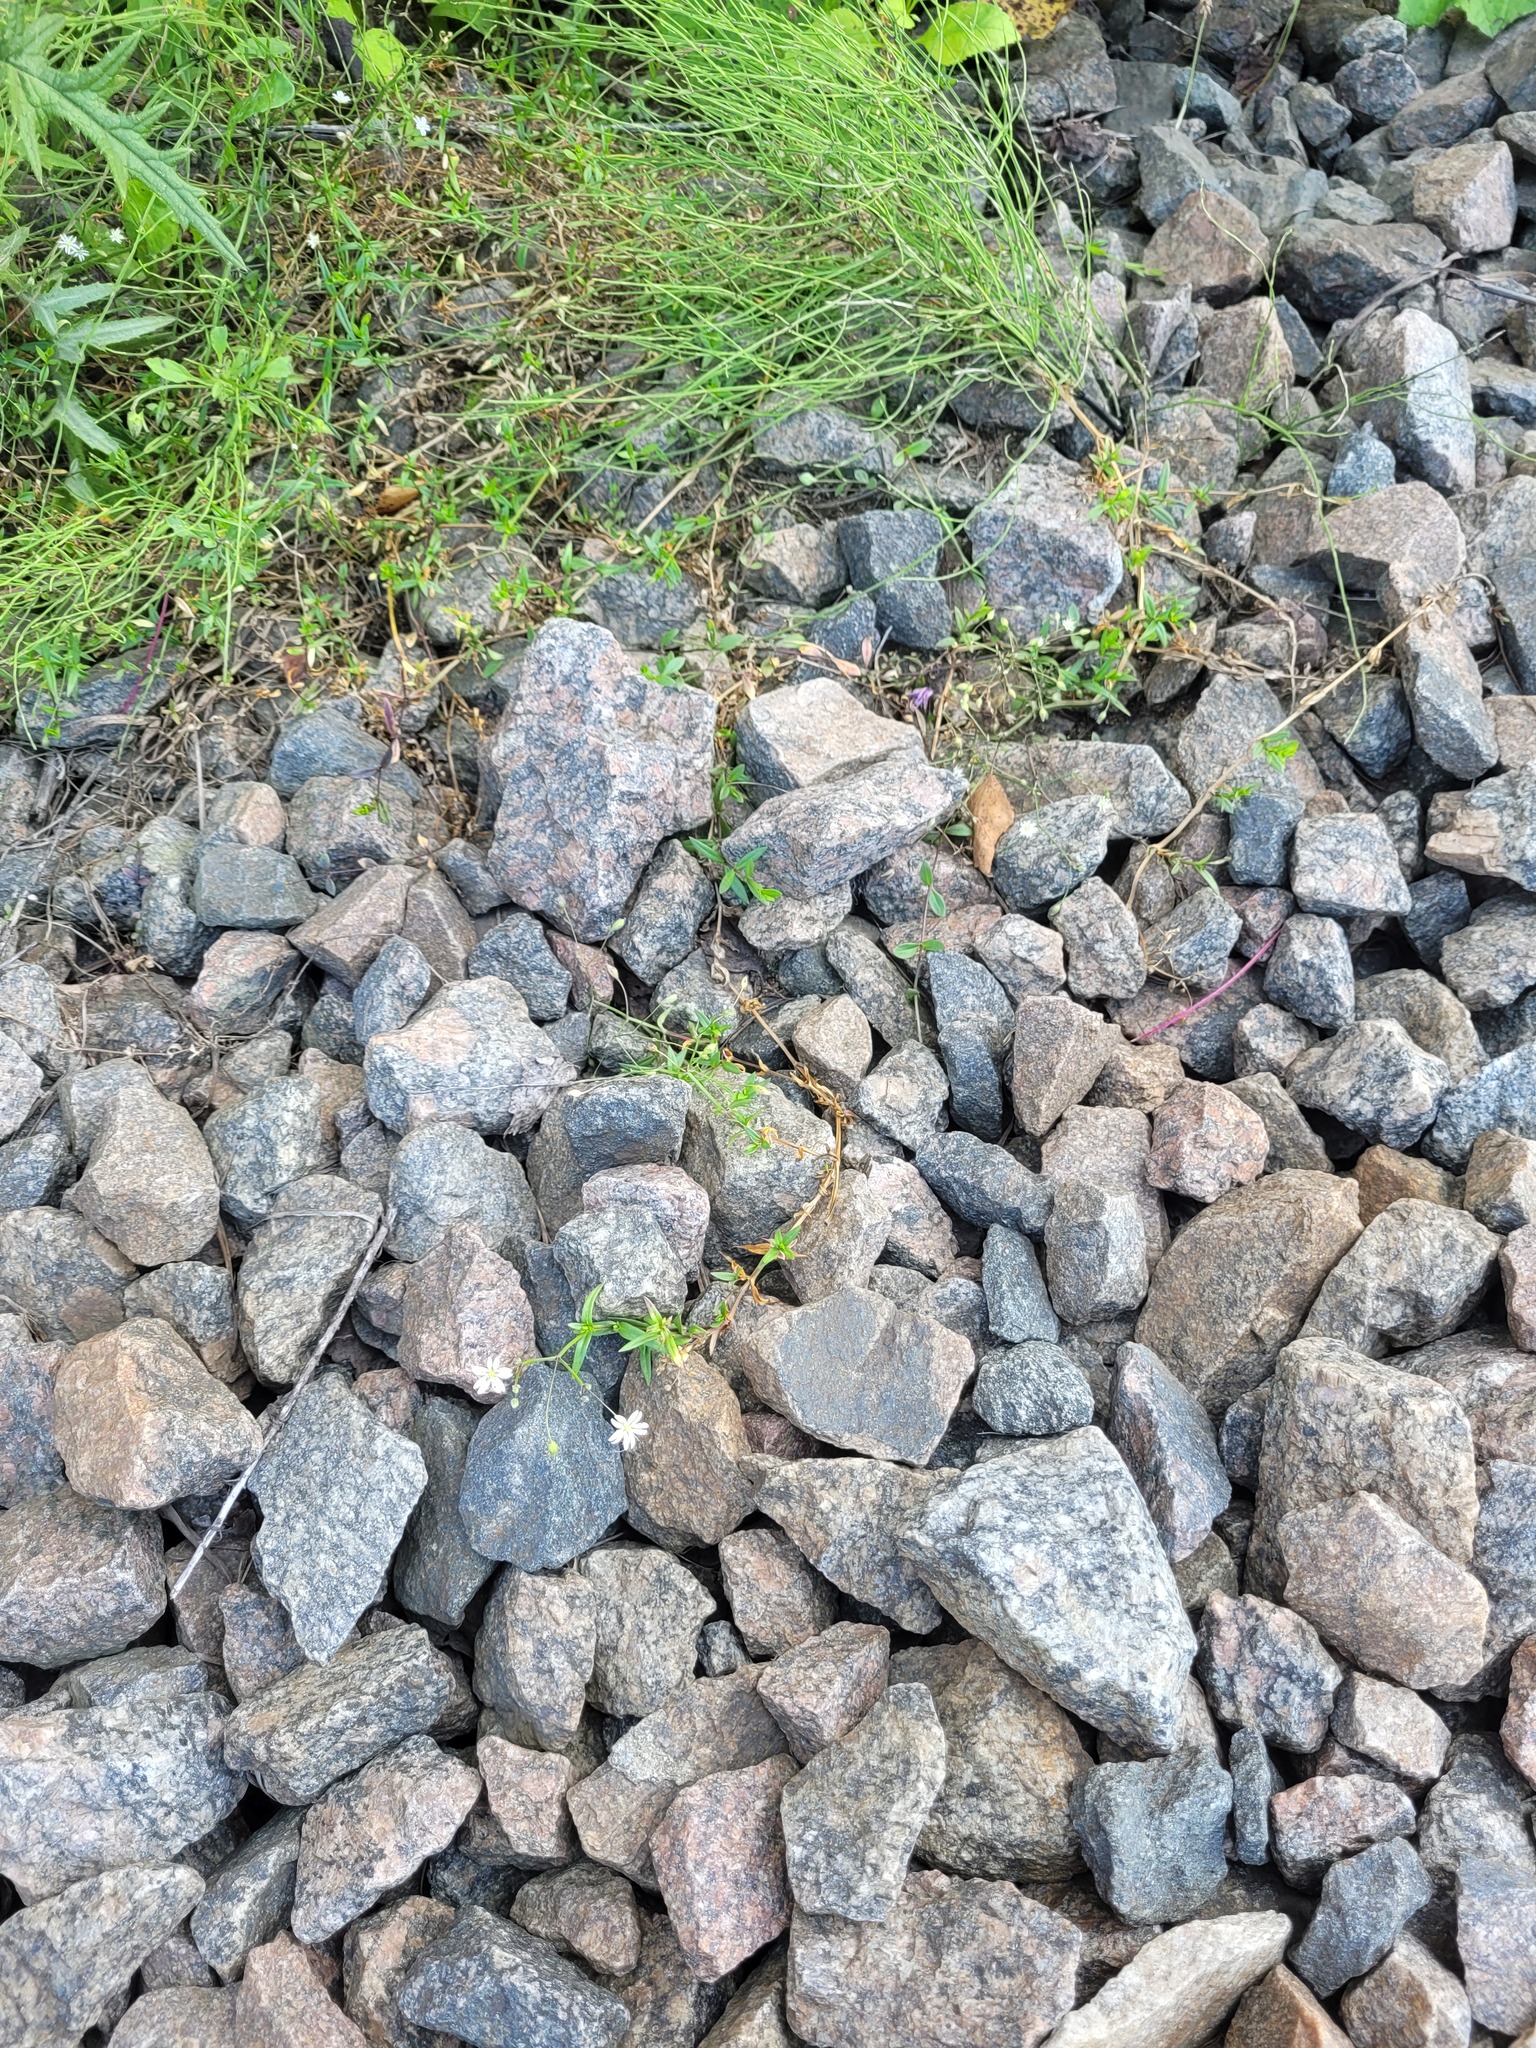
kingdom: Plantae
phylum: Tracheophyta
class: Magnoliopsida
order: Caryophyllales
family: Caryophyllaceae
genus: Stellaria
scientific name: Stellaria graminea
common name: Grass-like starwort
